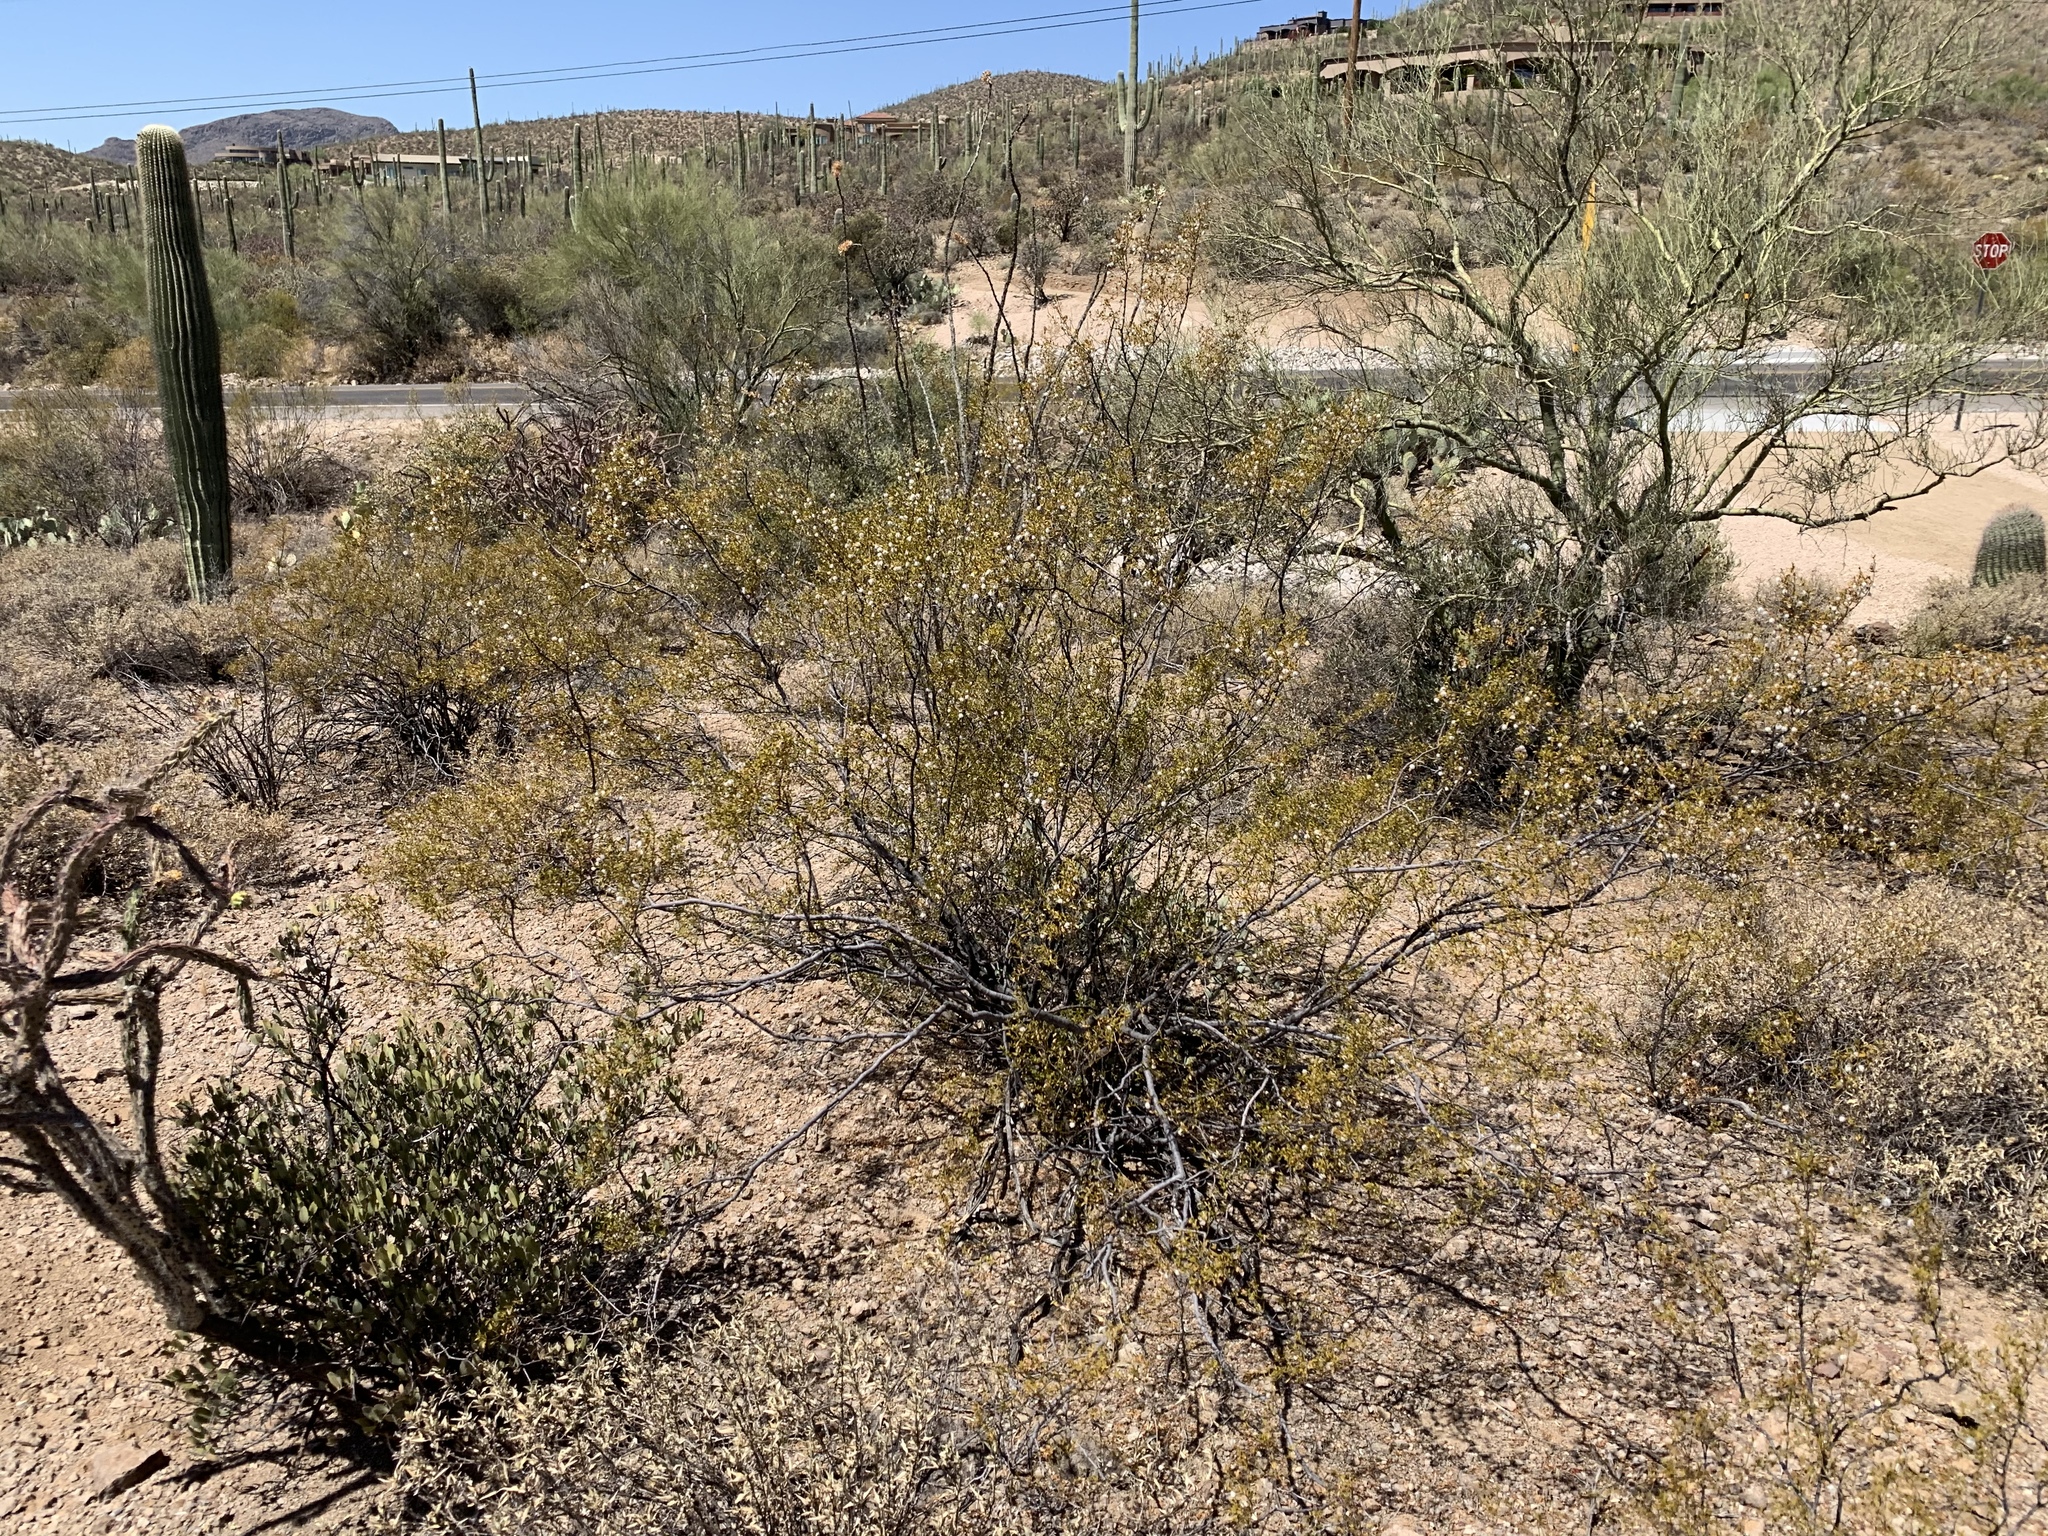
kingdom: Plantae
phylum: Tracheophyta
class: Magnoliopsida
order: Zygophyllales
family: Zygophyllaceae
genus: Larrea
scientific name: Larrea tridentata
